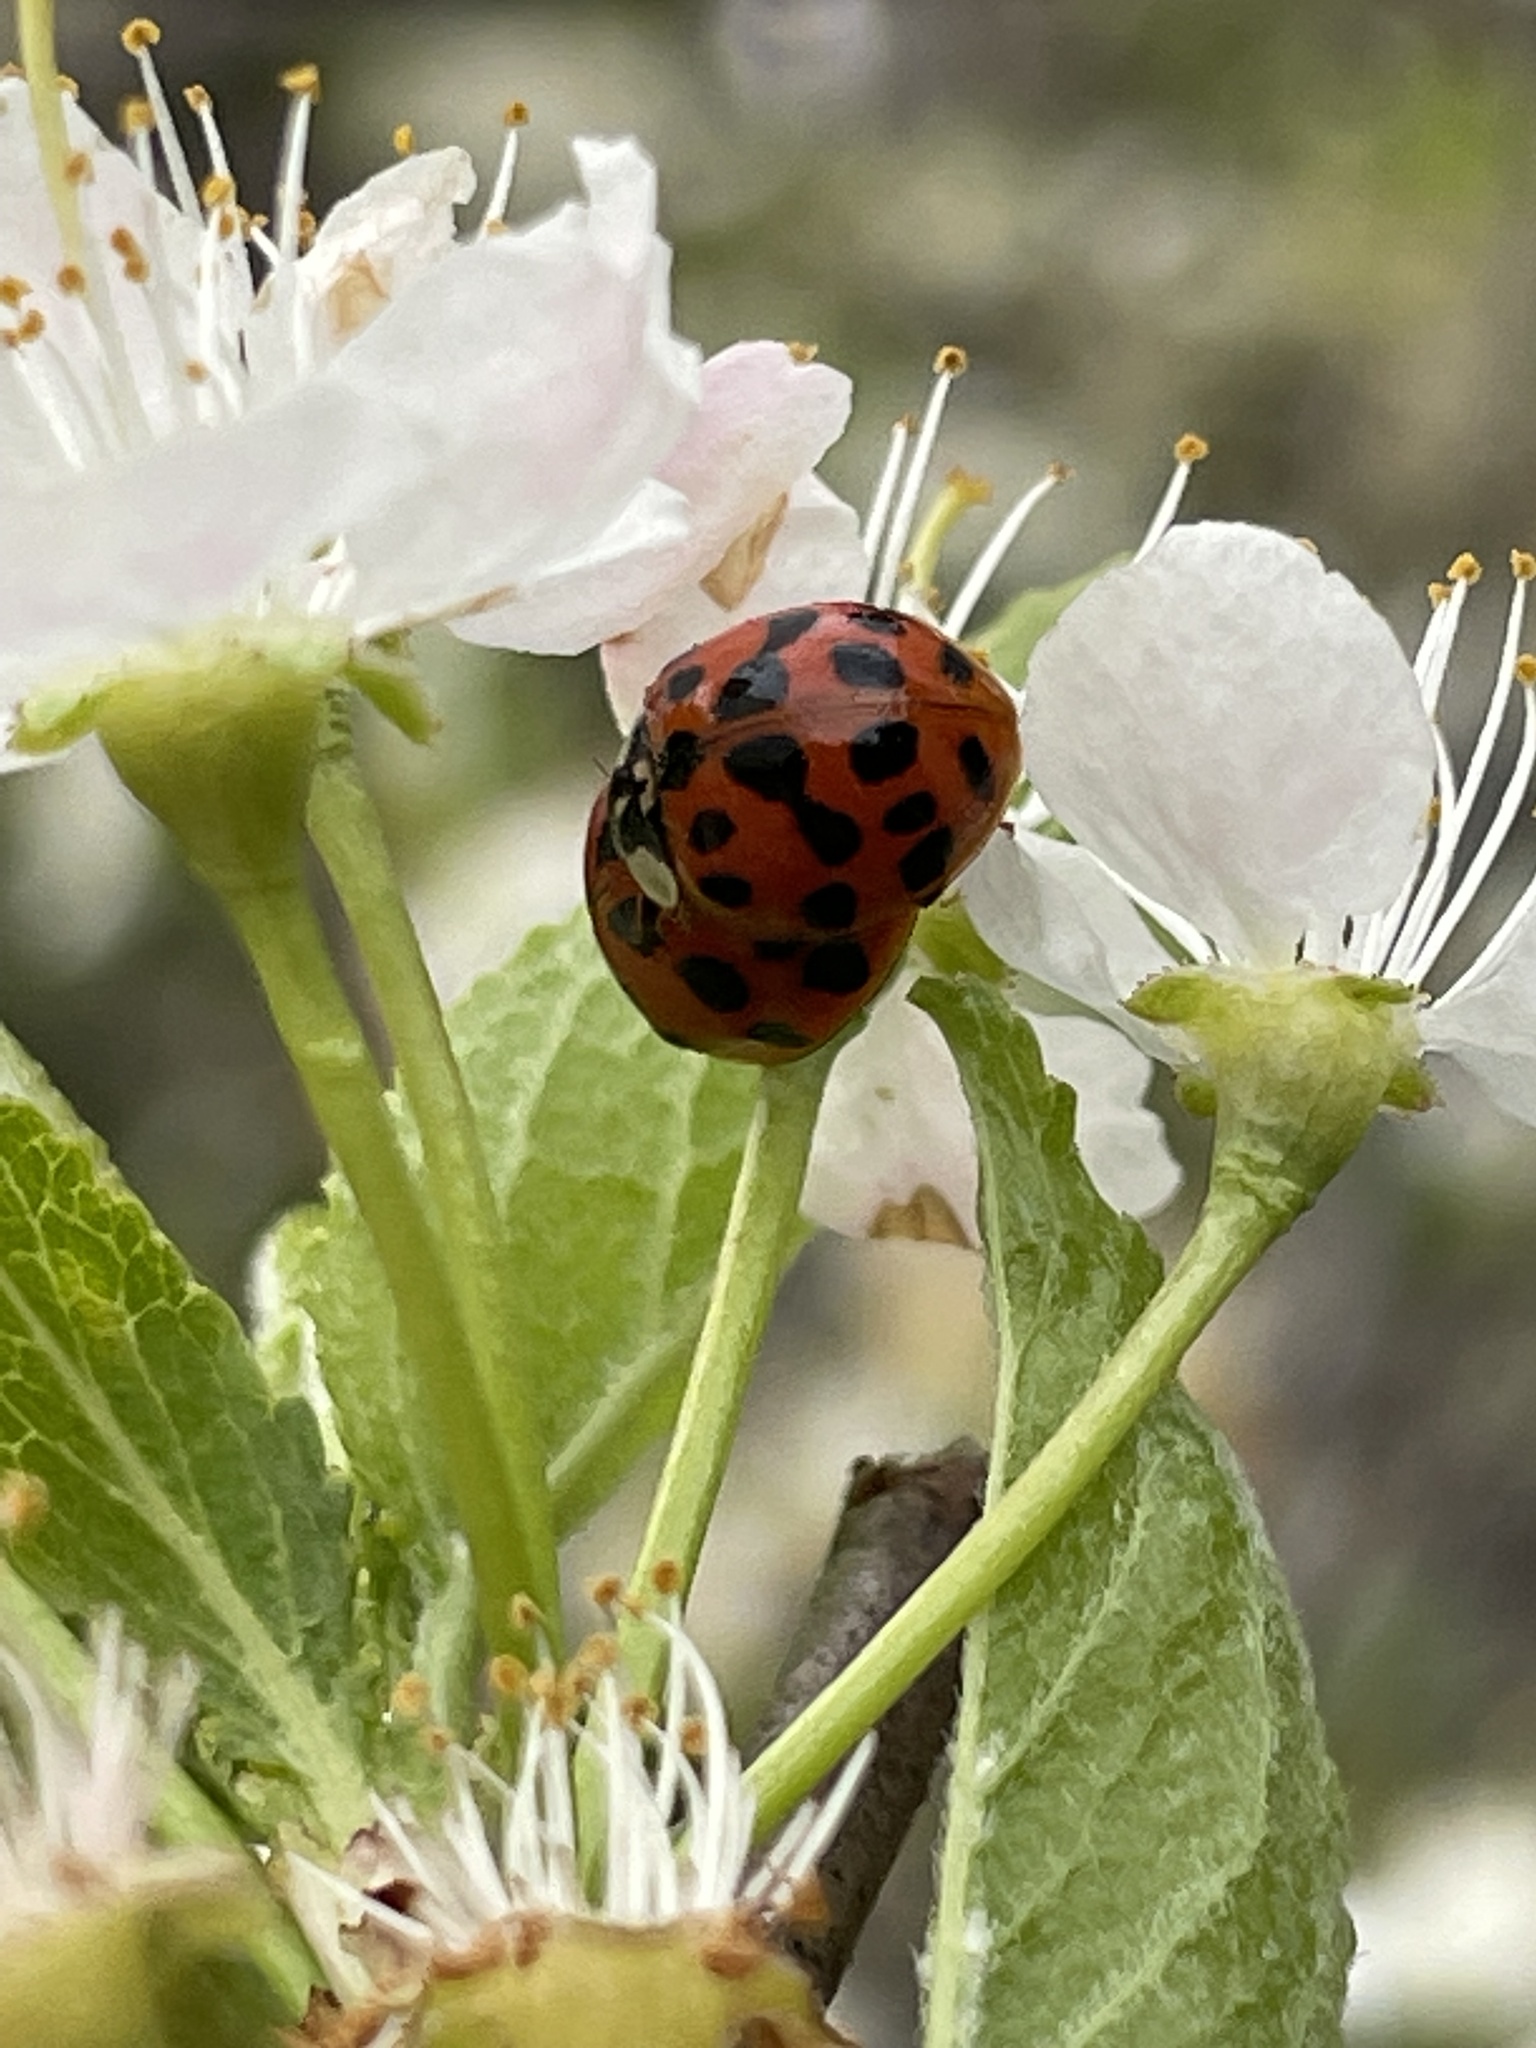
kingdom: Animalia
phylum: Arthropoda
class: Insecta
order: Coleoptera
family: Coccinellidae
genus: Harmonia
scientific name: Harmonia axyridis
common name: Harlequin ladybird
